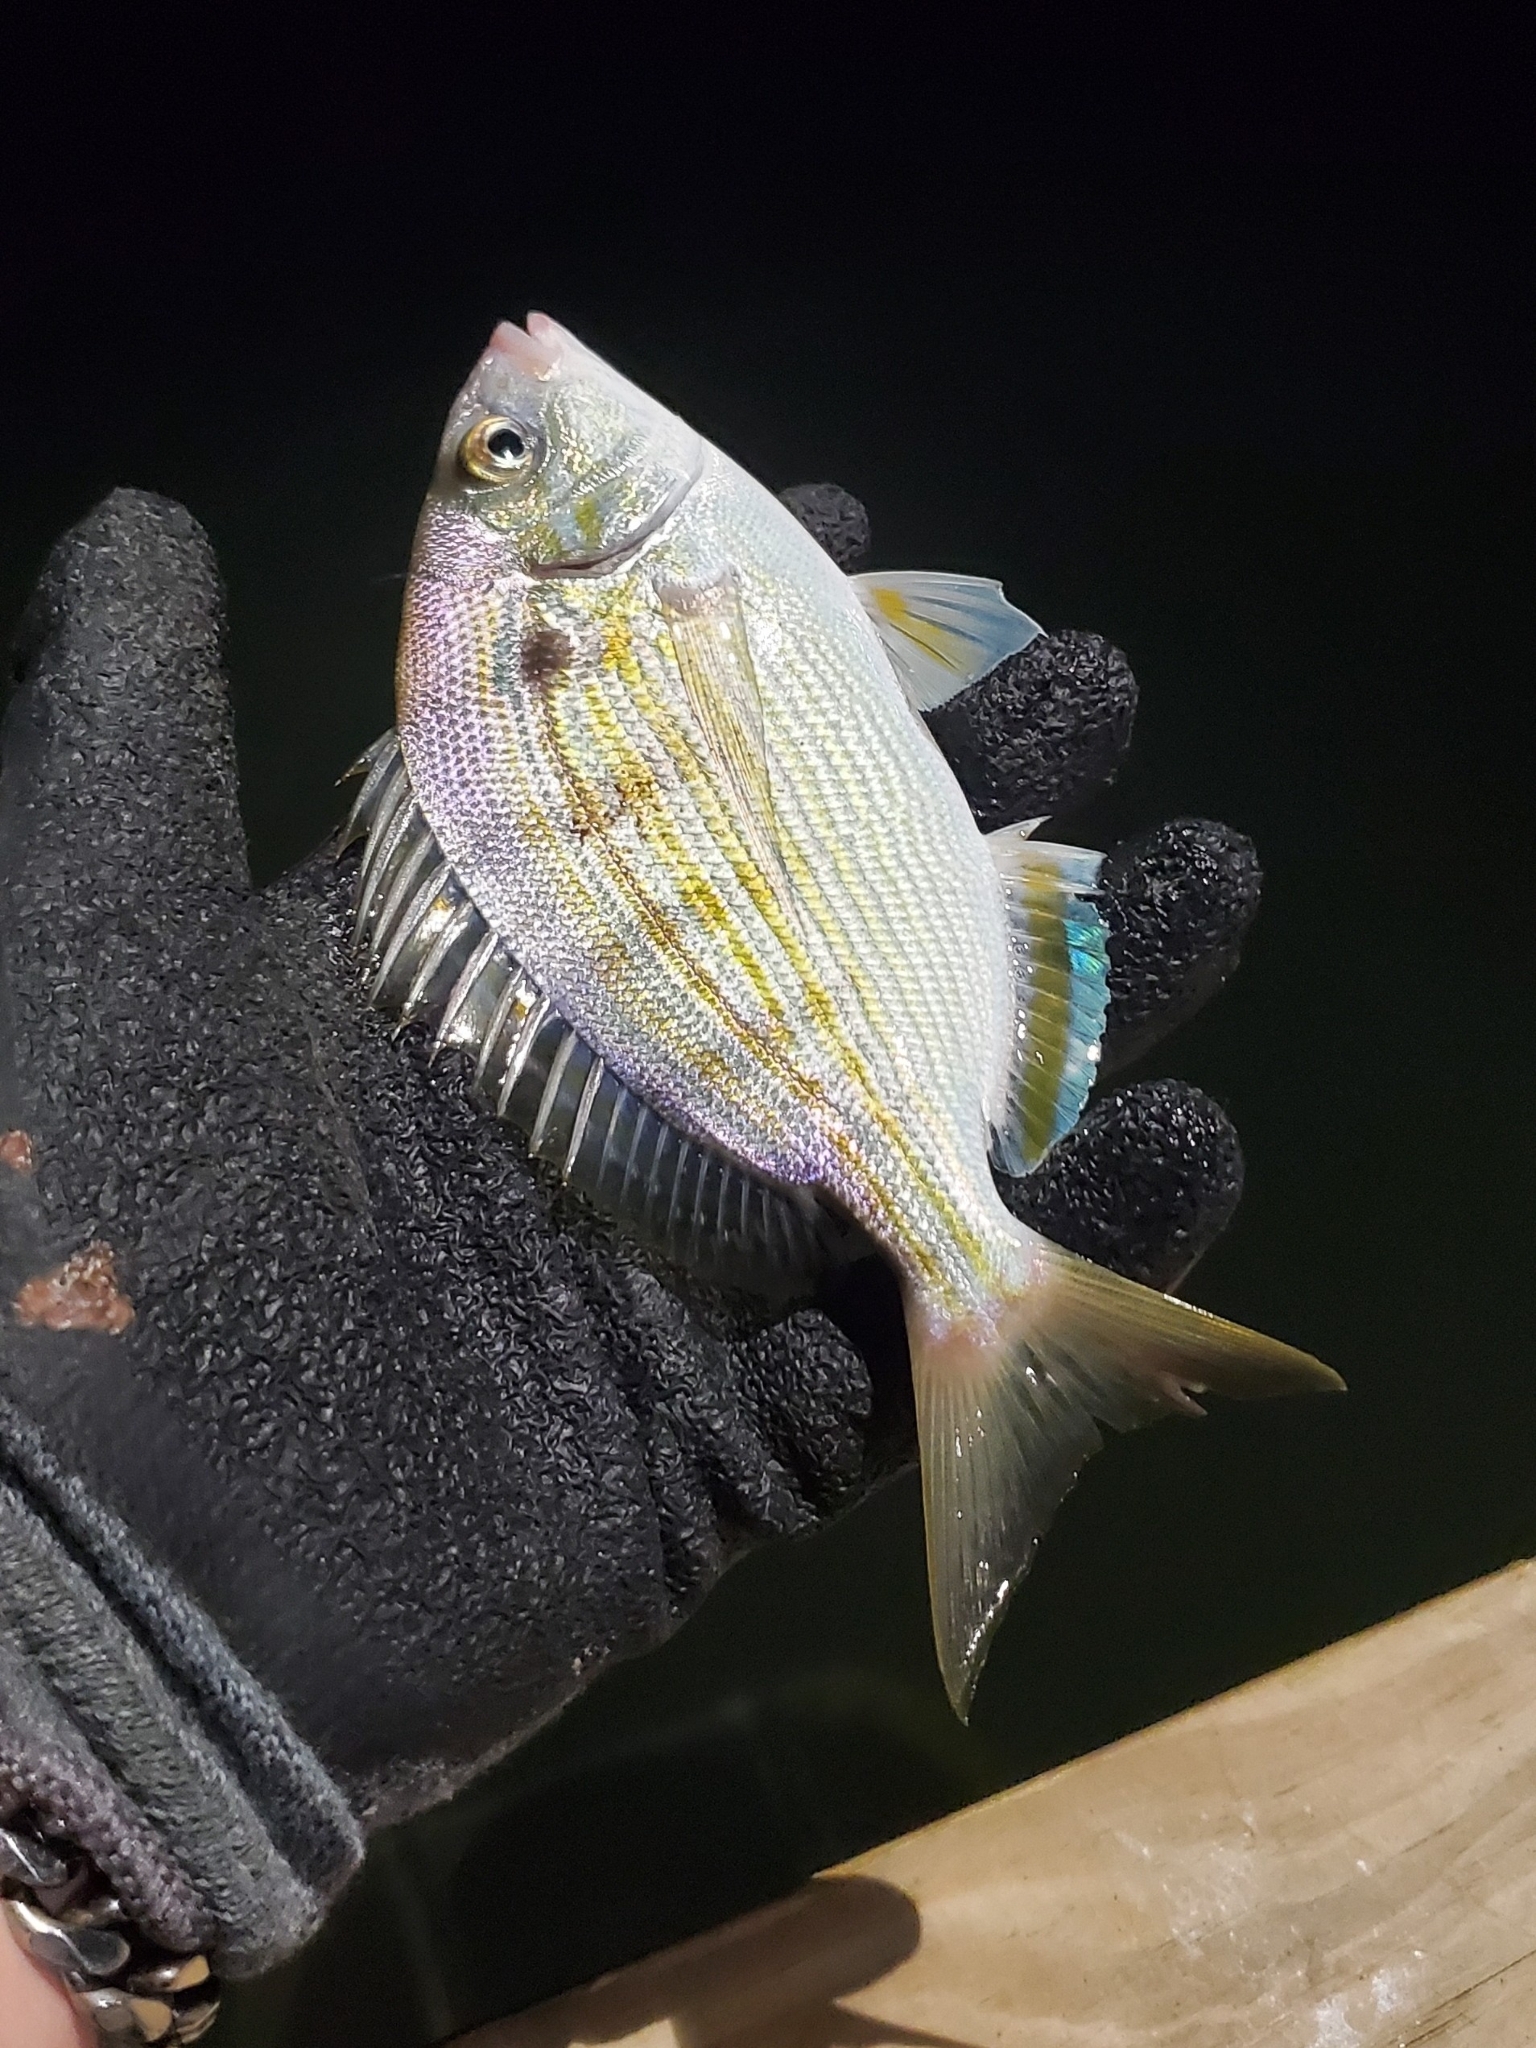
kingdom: Animalia
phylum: Chordata
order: Perciformes
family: Sparidae
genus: Lagodon
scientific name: Lagodon rhomboides
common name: Pinfish
